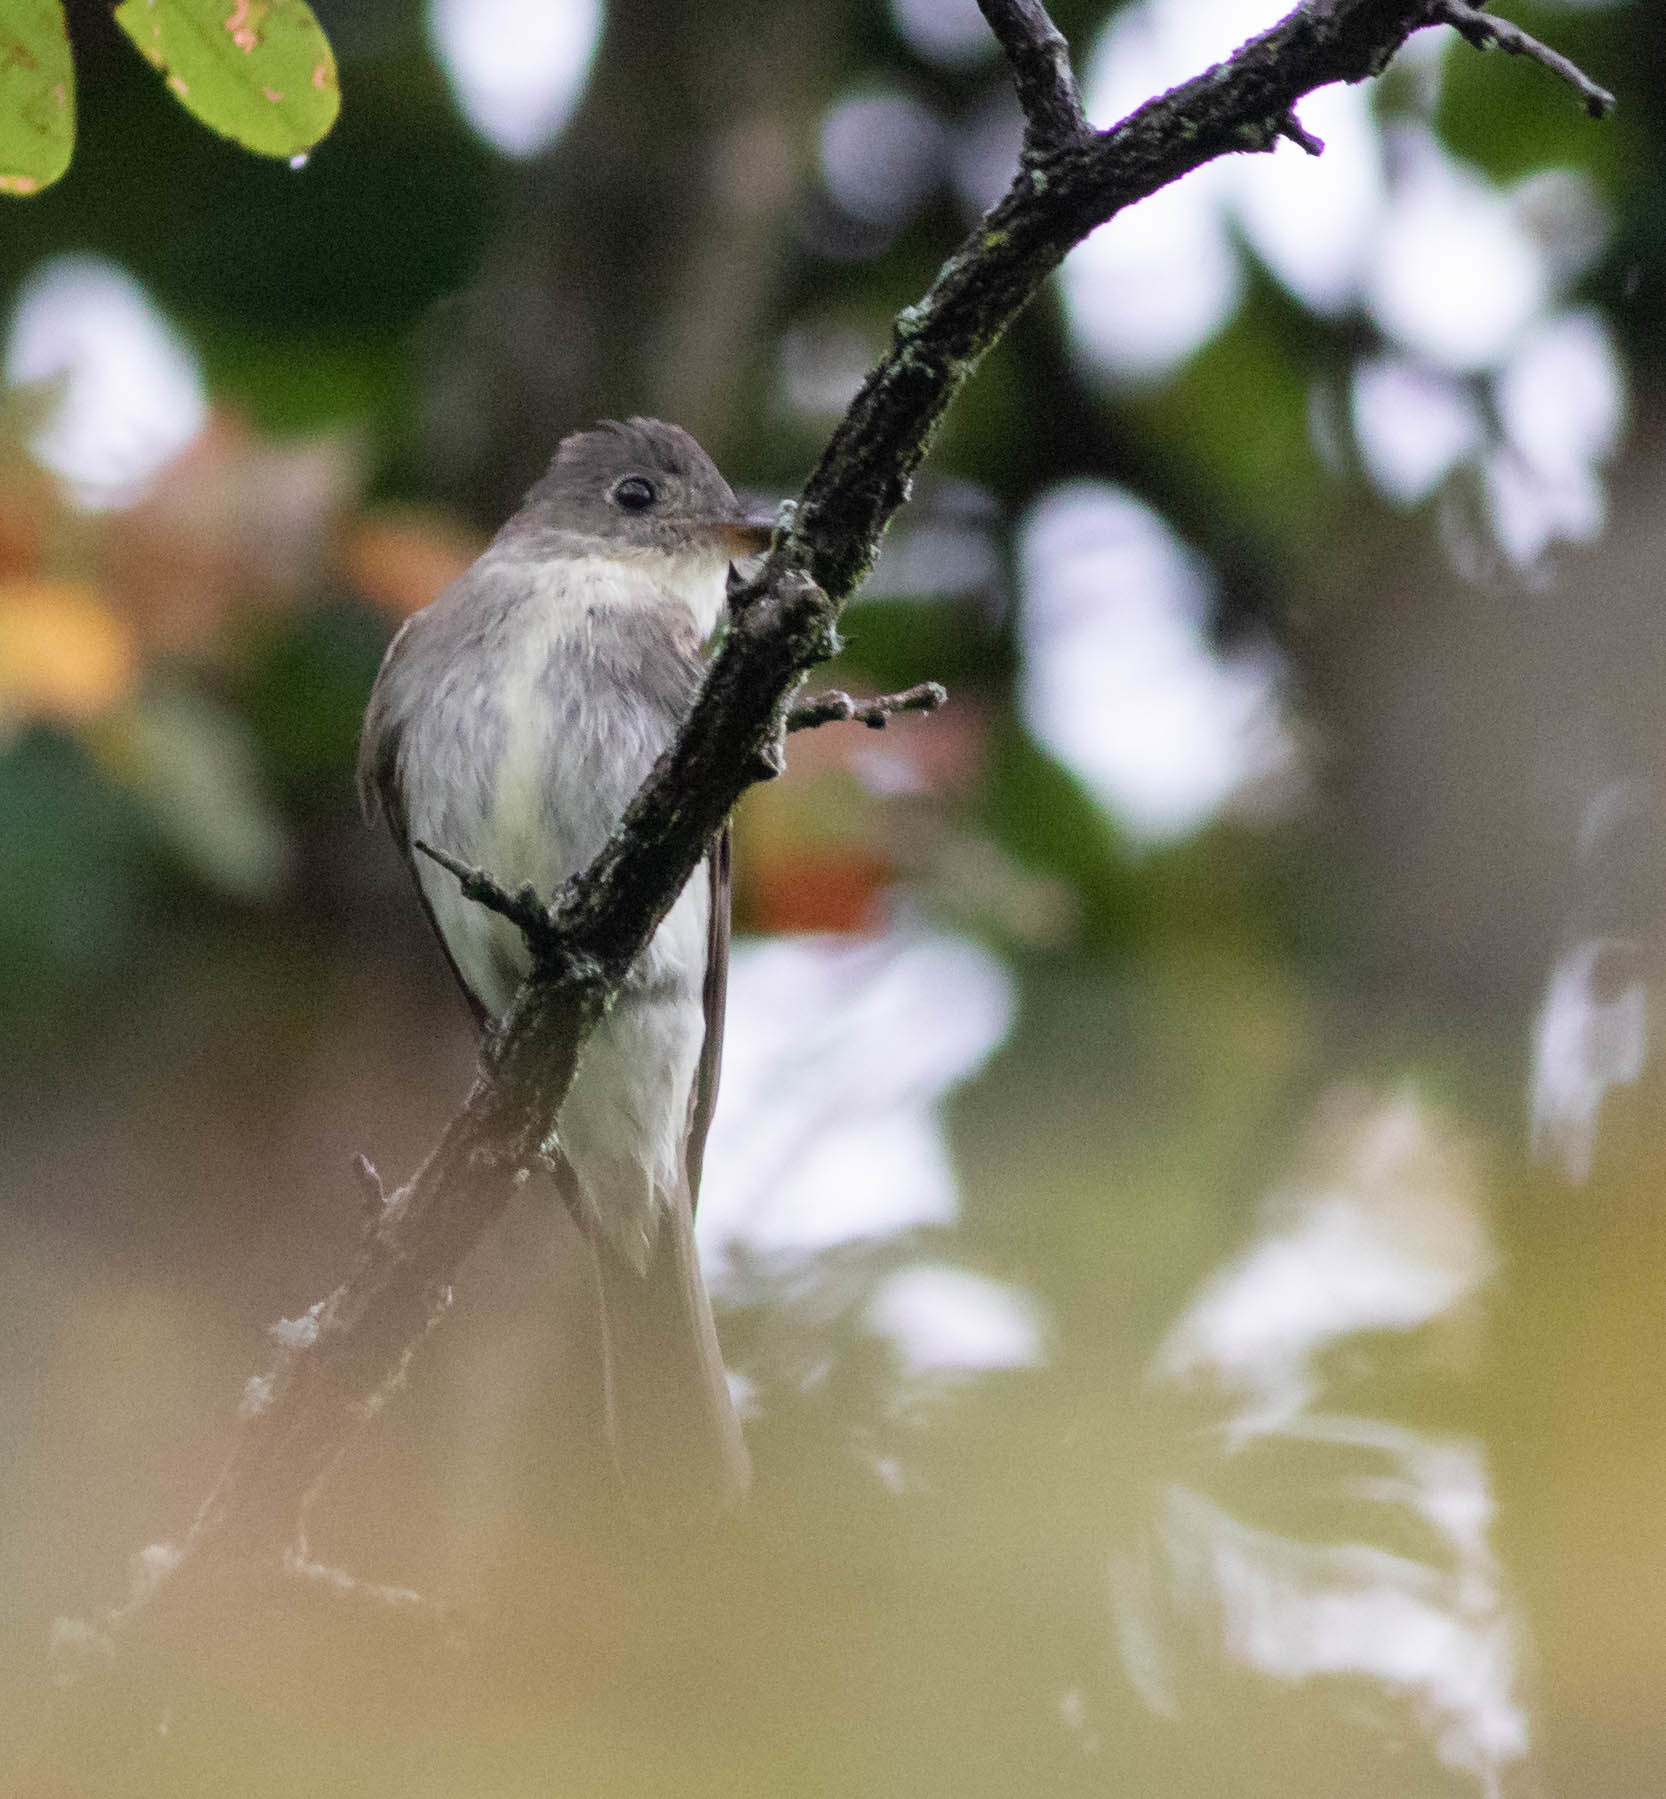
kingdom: Animalia
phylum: Chordata
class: Aves
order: Passeriformes
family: Tyrannidae
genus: Contopus
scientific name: Contopus virens
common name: Eastern wood-pewee
